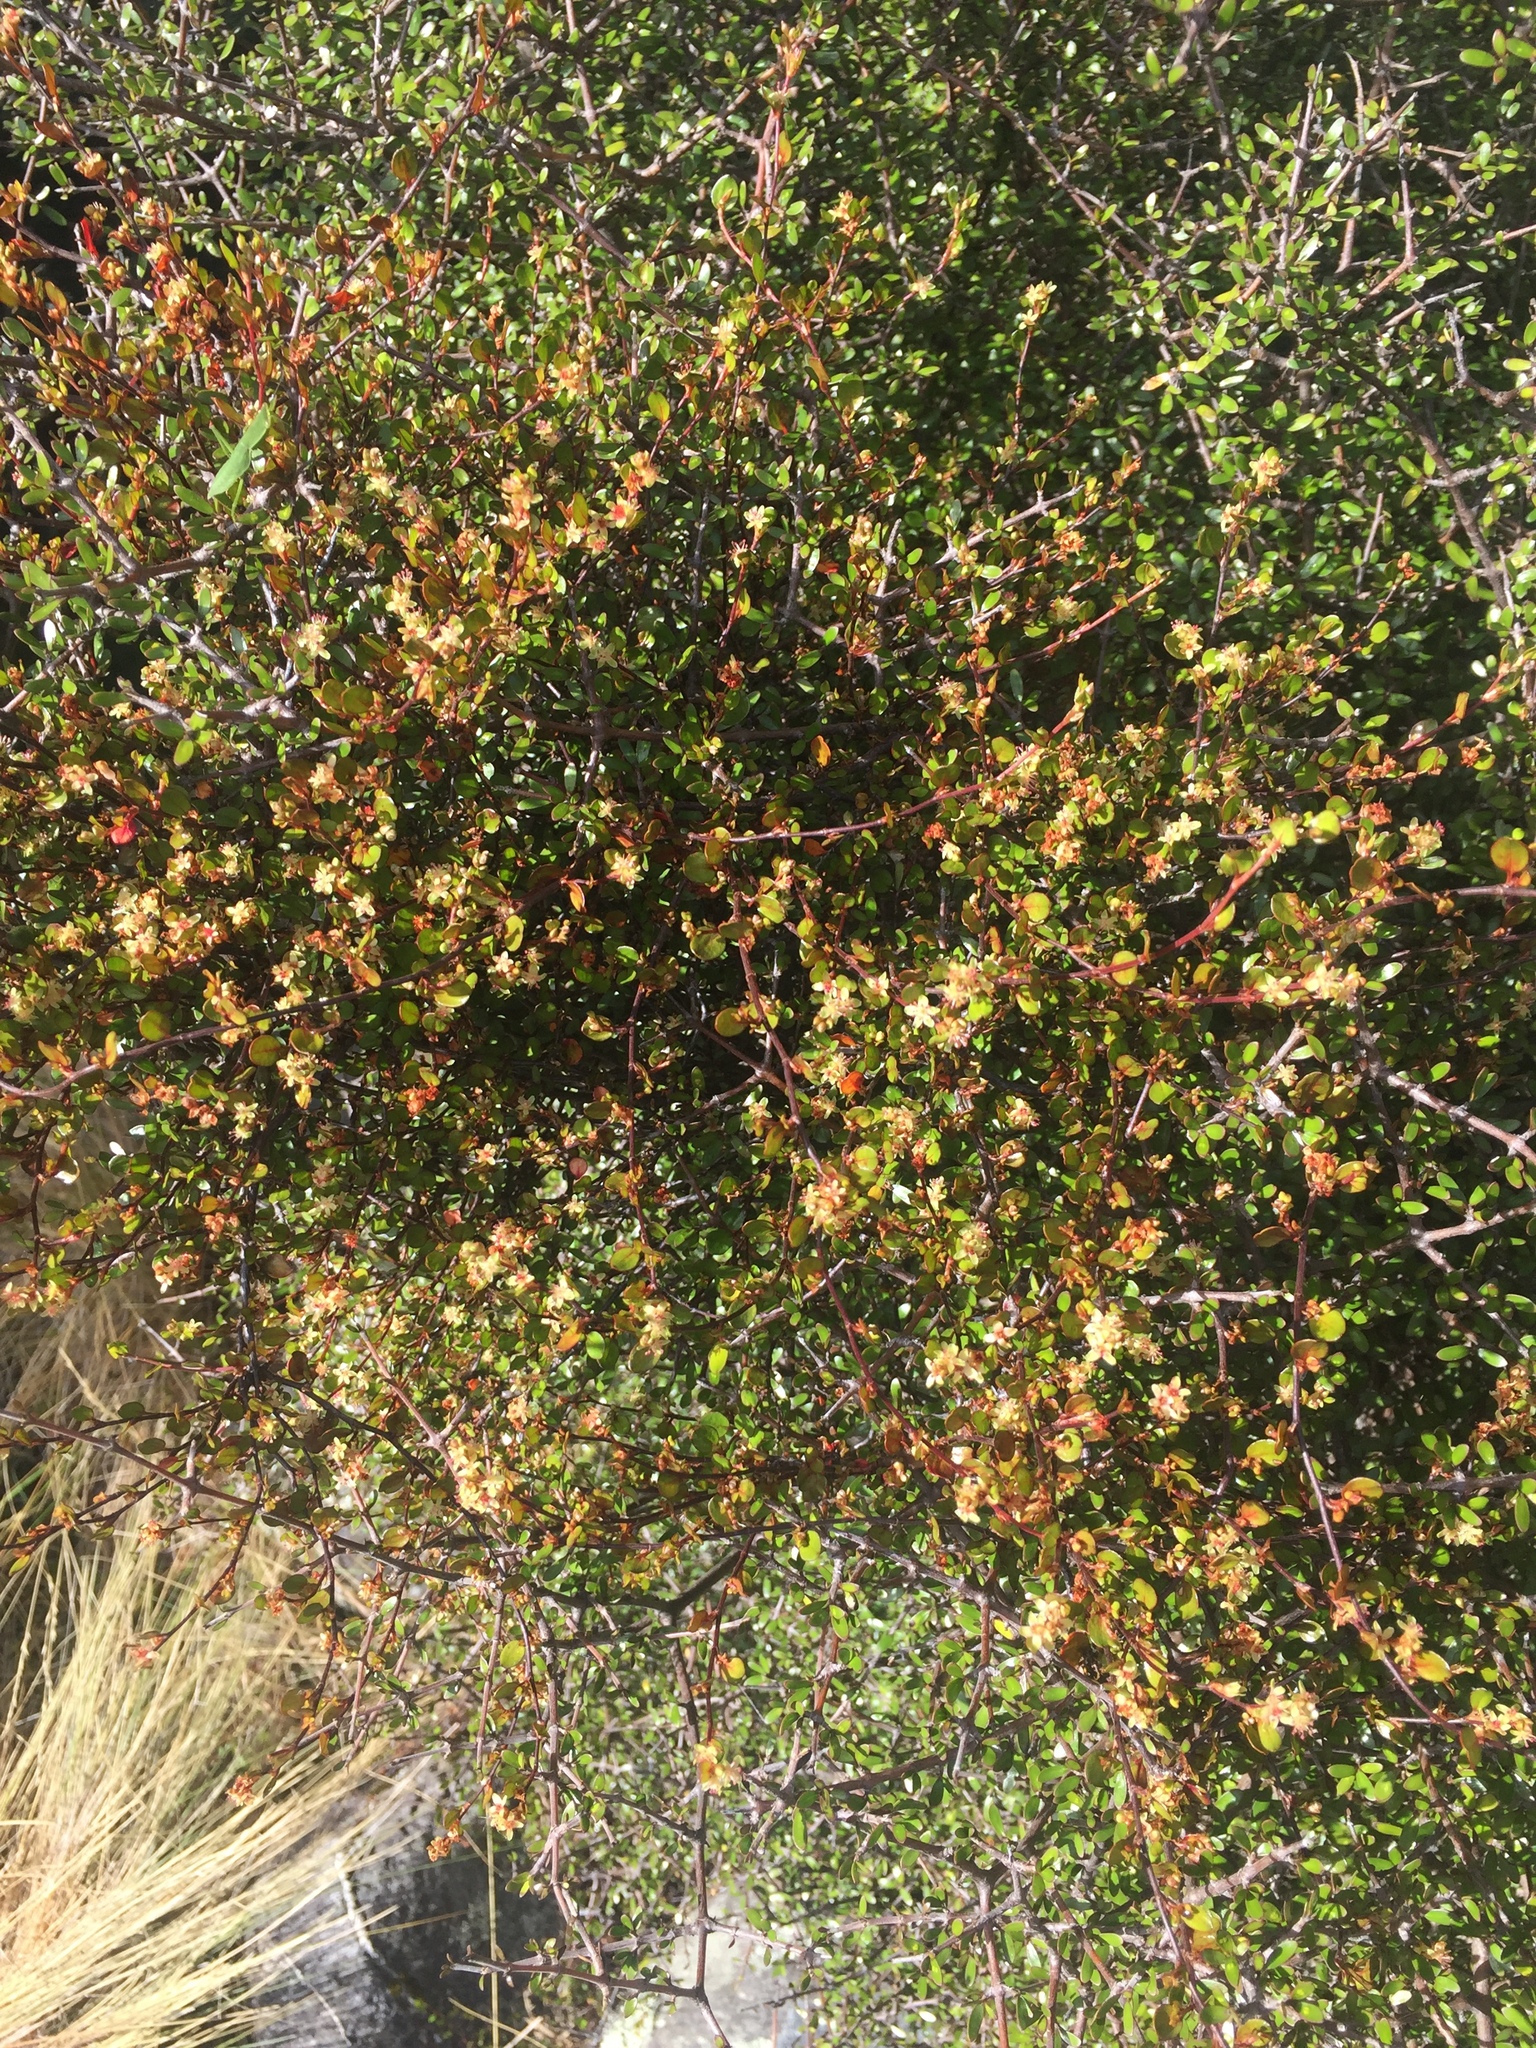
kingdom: Plantae
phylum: Tracheophyta
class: Magnoliopsida
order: Caryophyllales
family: Polygonaceae
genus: Muehlenbeckia
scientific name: Muehlenbeckia axillaris
